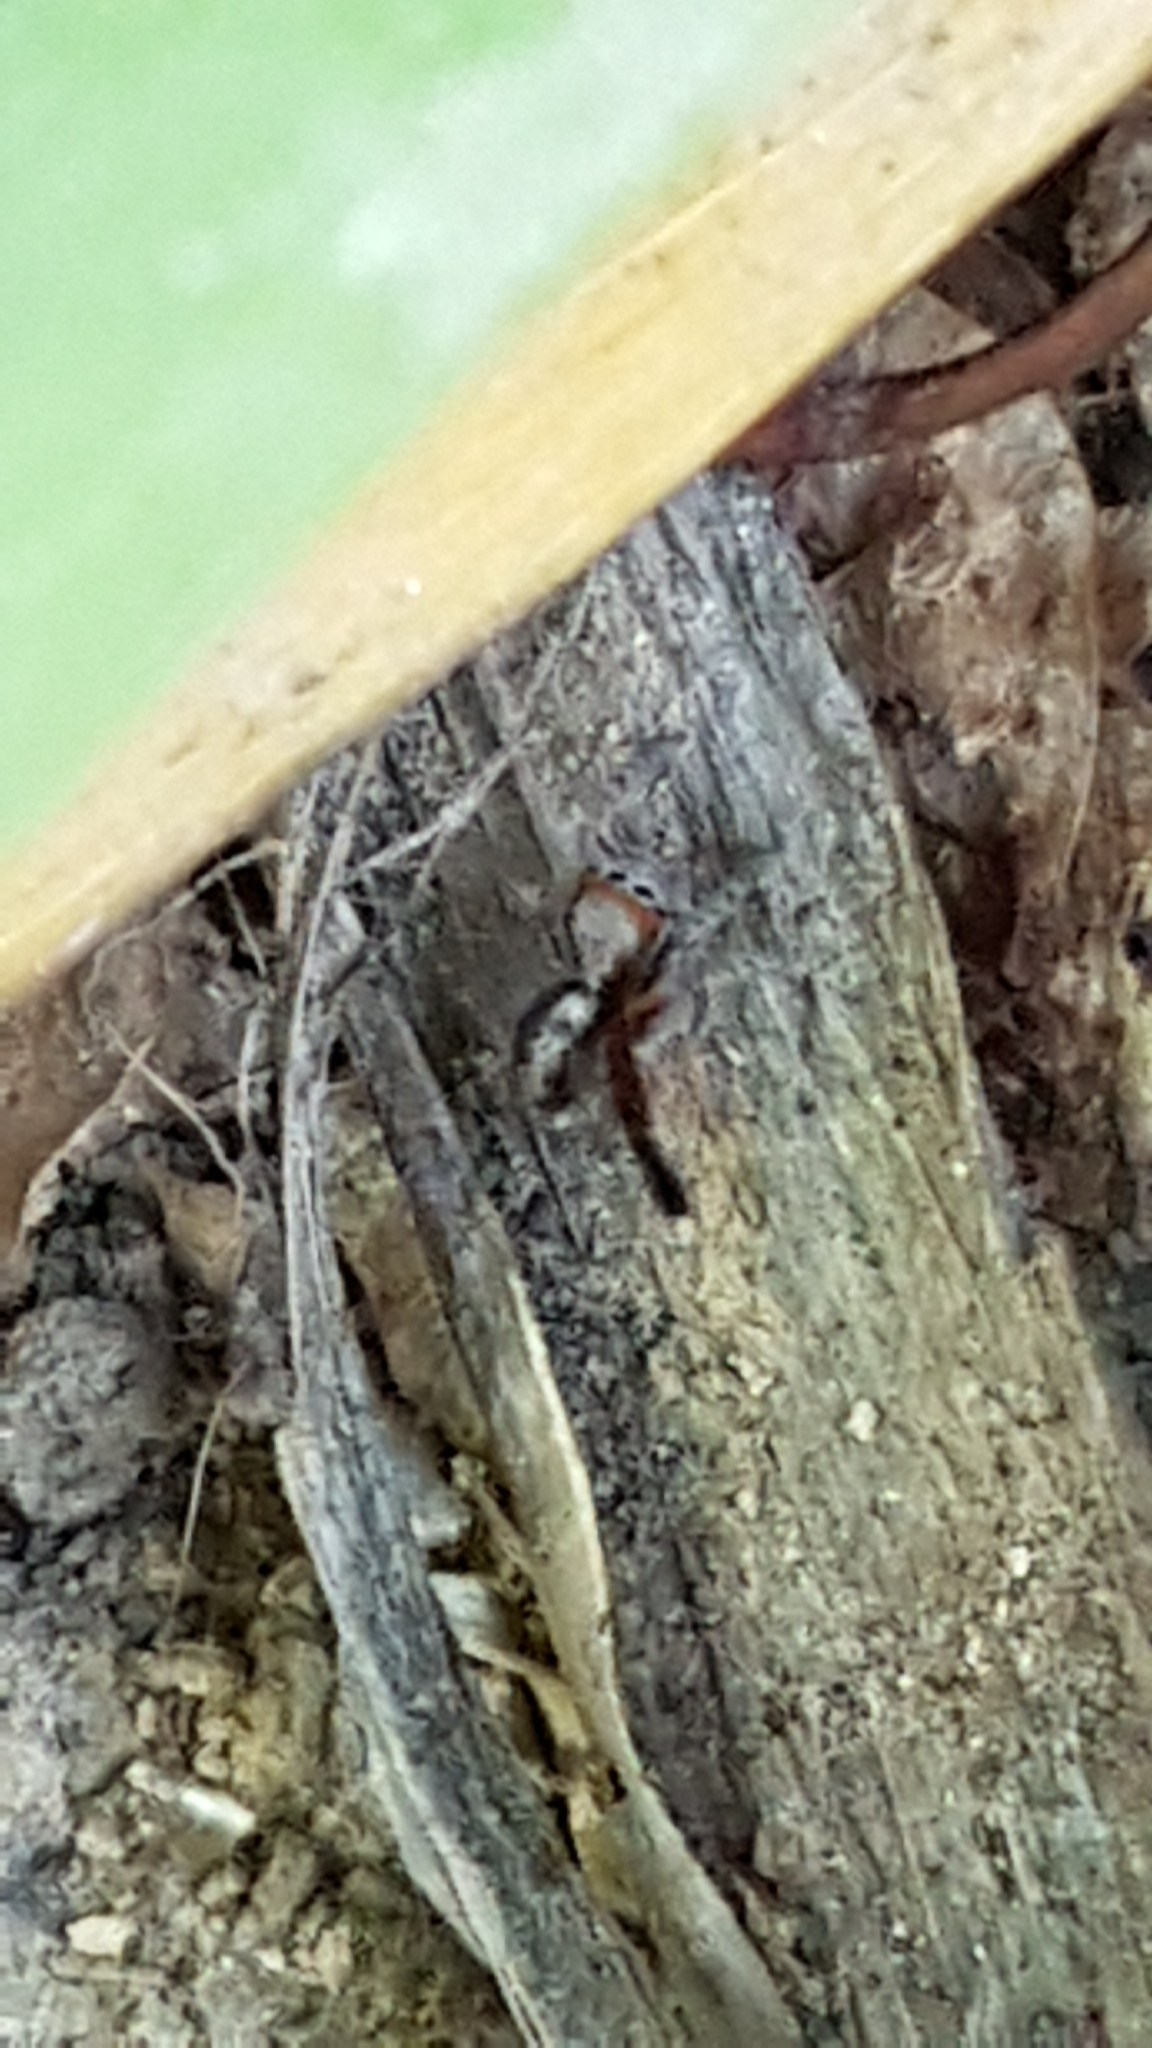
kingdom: Animalia
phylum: Arthropoda
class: Arachnida
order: Araneae
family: Salticidae
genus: Saitis
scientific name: Saitis barbipes
